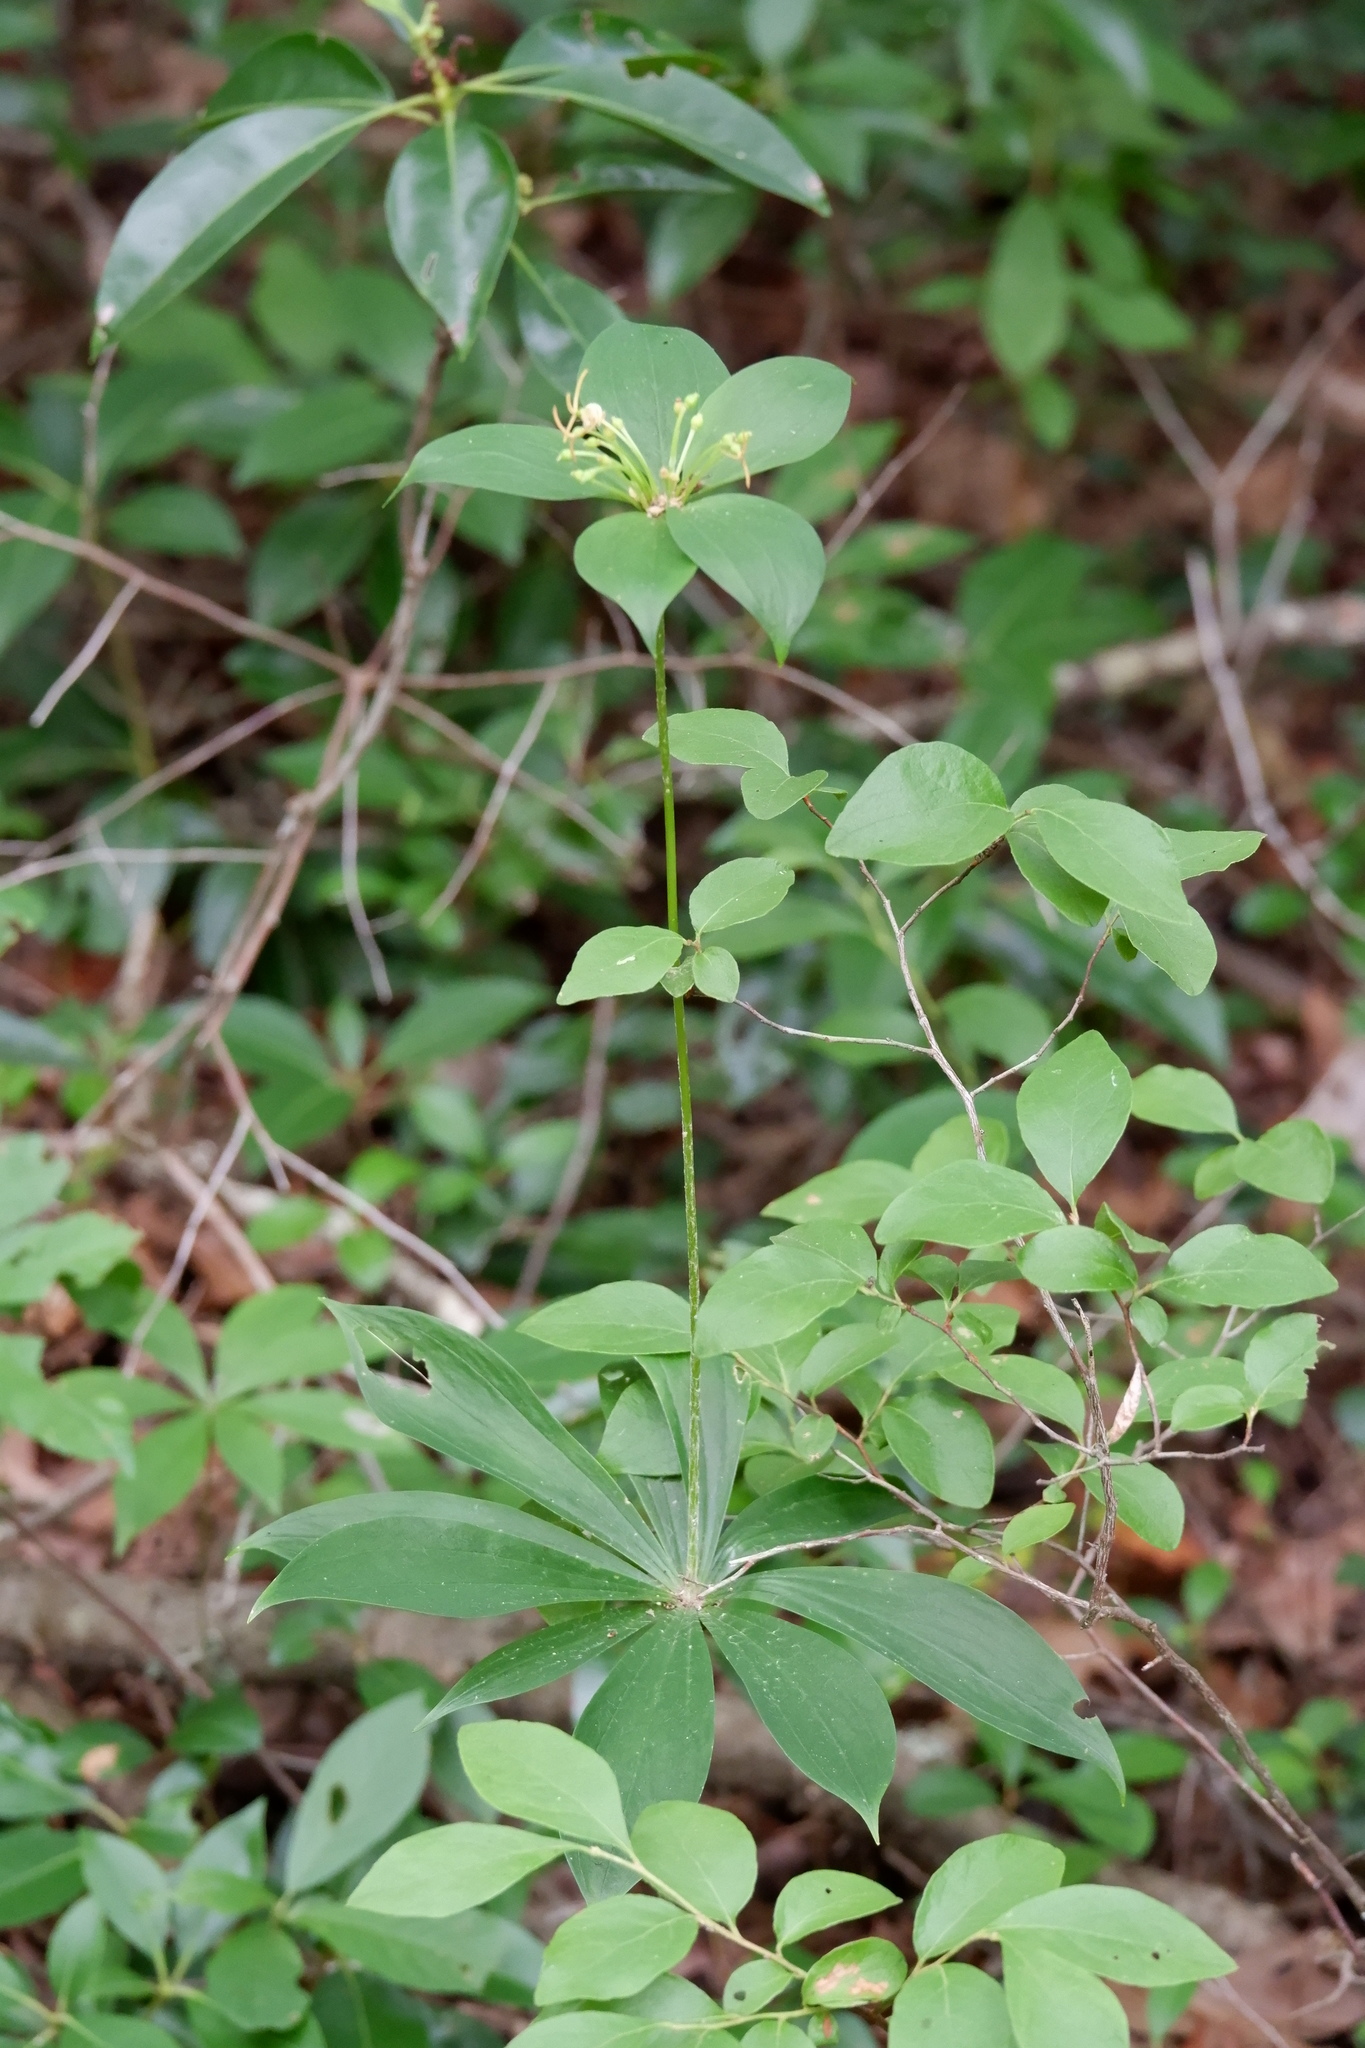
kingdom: Plantae
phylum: Tracheophyta
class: Liliopsida
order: Liliales
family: Liliaceae
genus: Medeola
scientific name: Medeola virginiana
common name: Indian cucumber-root
